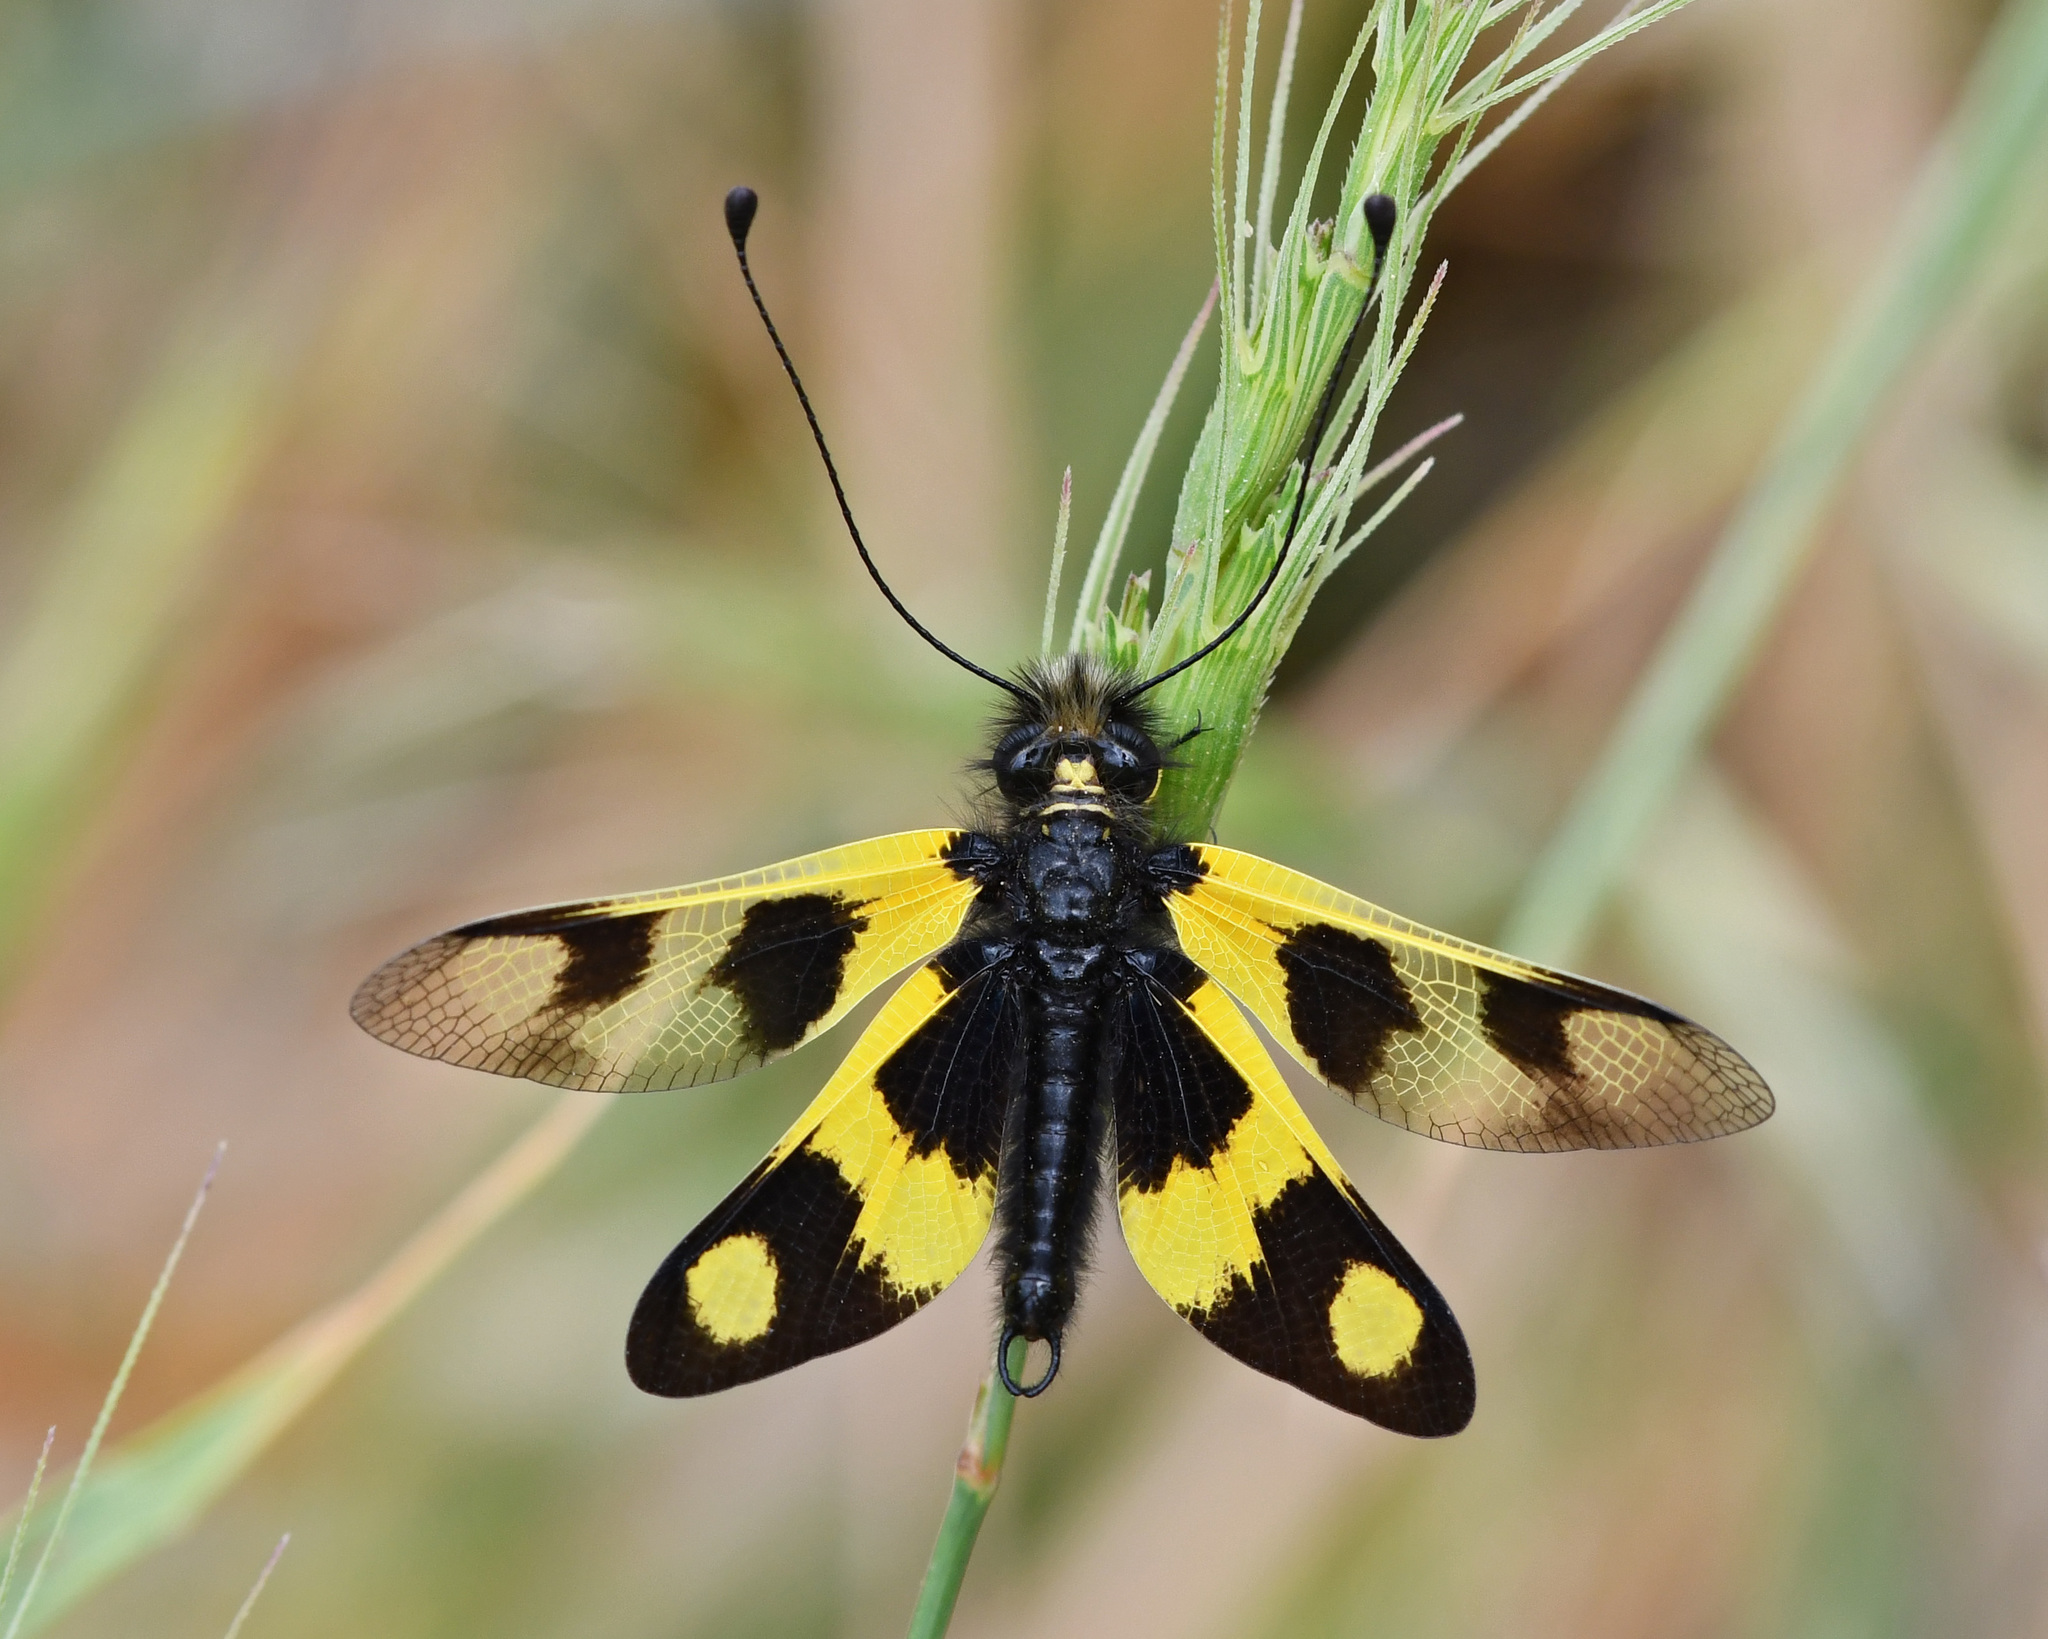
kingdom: Animalia
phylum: Arthropoda
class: Insecta
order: Neuroptera
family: Ascalaphidae
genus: Libelloides
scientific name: Libelloides macaronius
